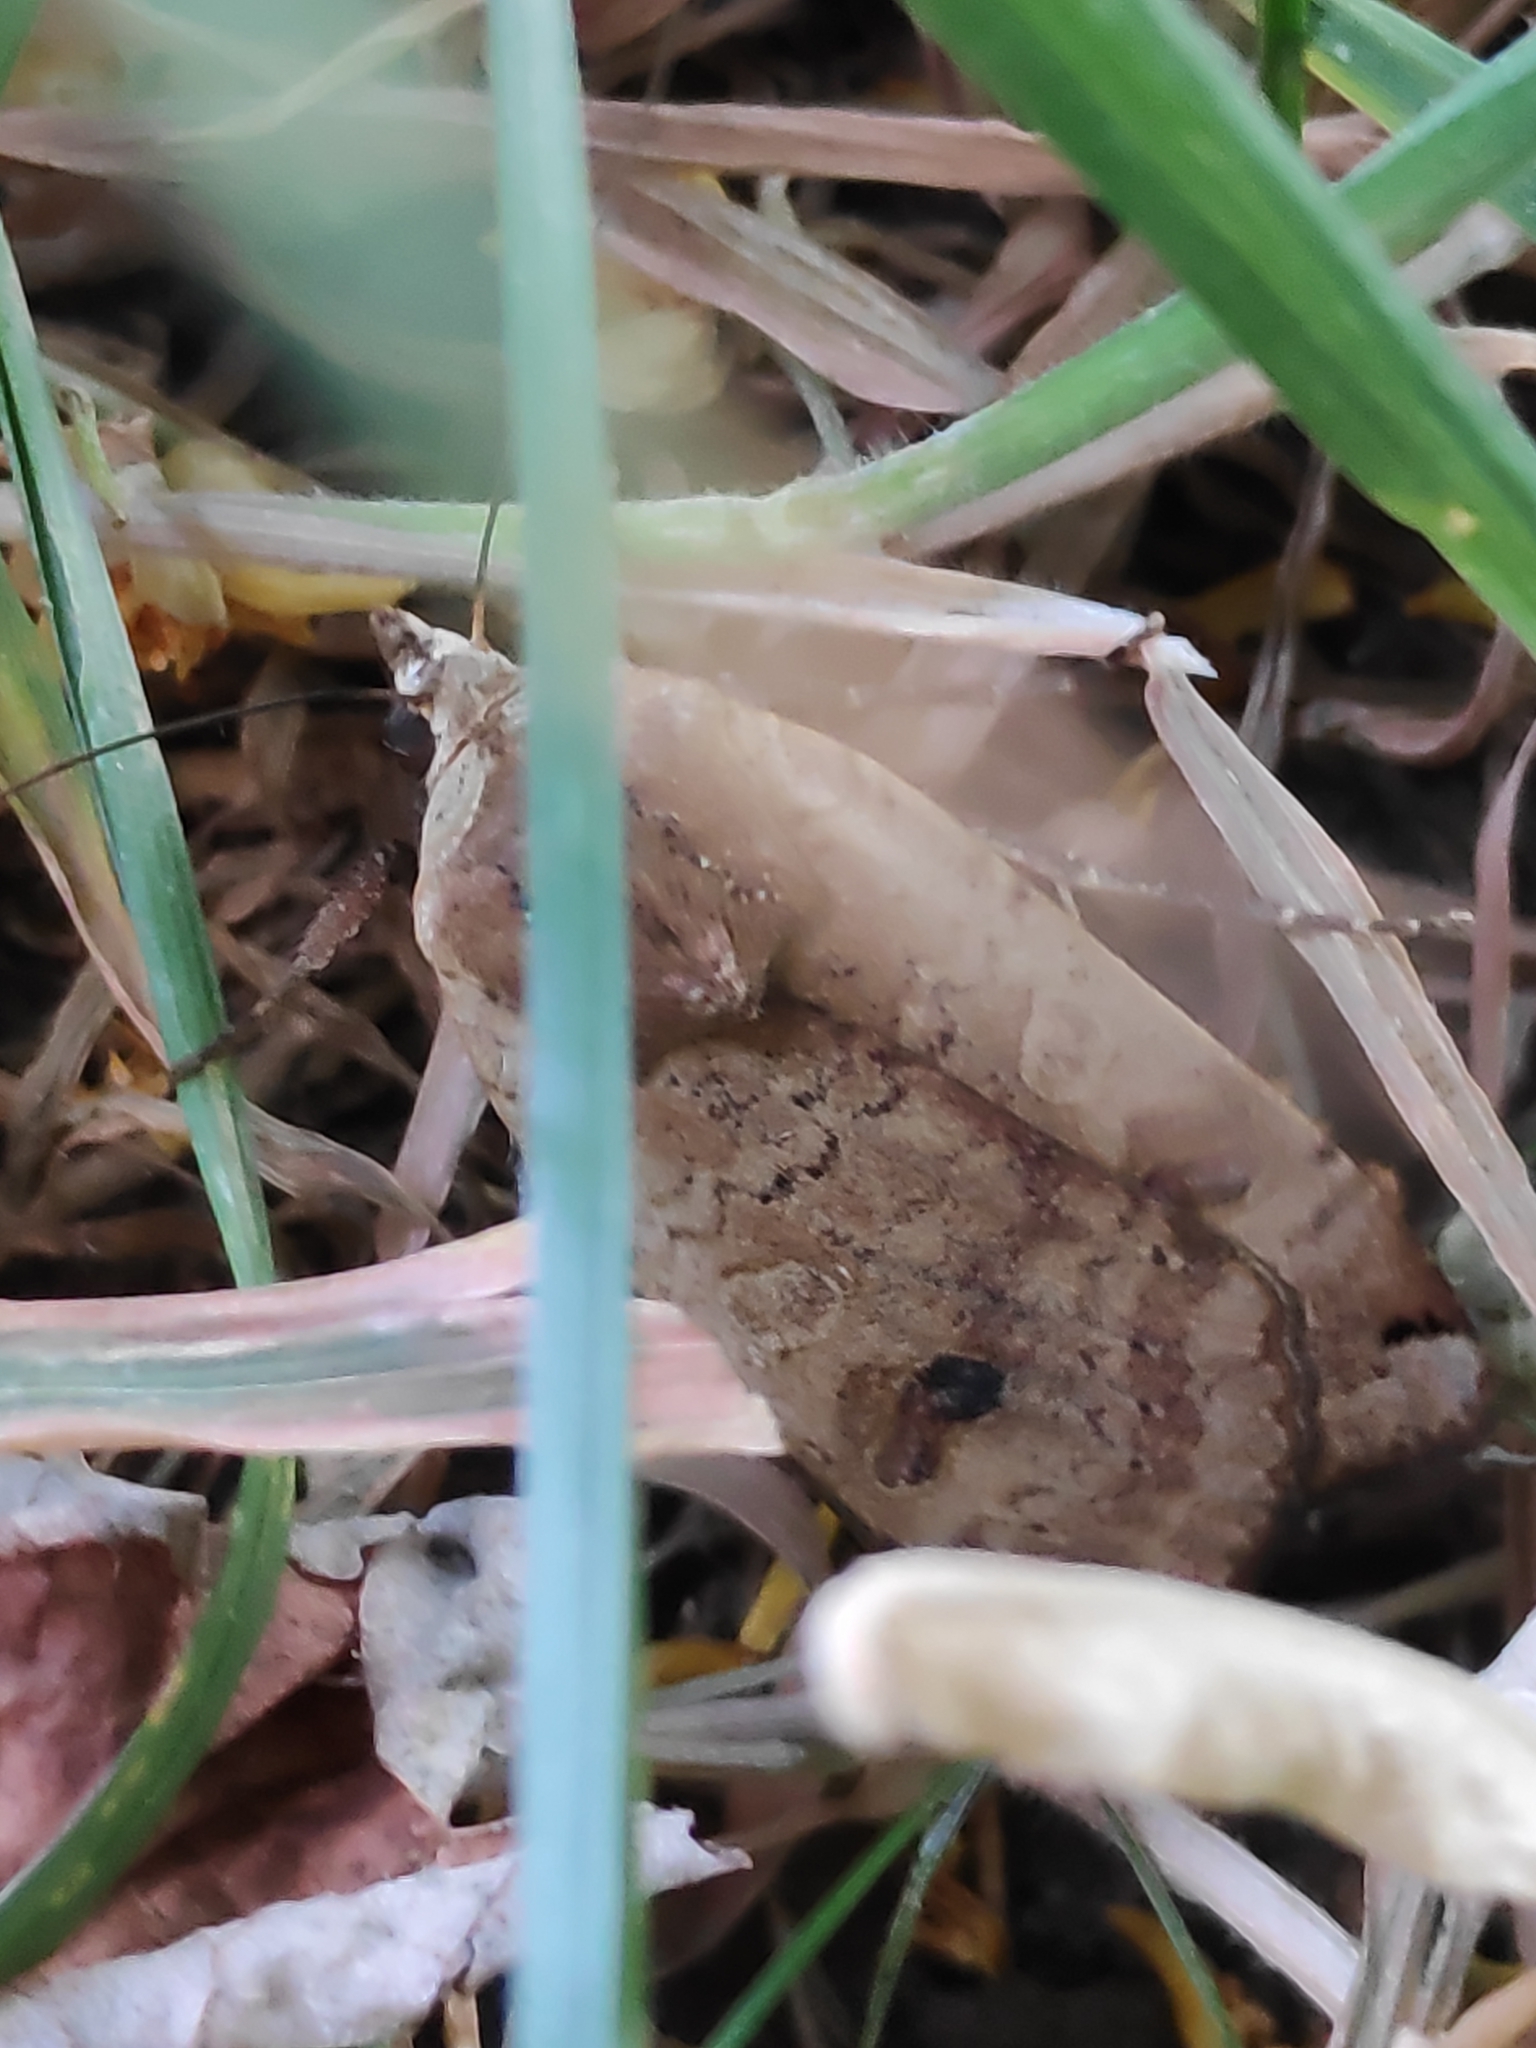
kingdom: Animalia
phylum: Arthropoda
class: Insecta
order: Lepidoptera
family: Noctuidae
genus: Noctua
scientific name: Noctua pronuba
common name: Large yellow underwing
